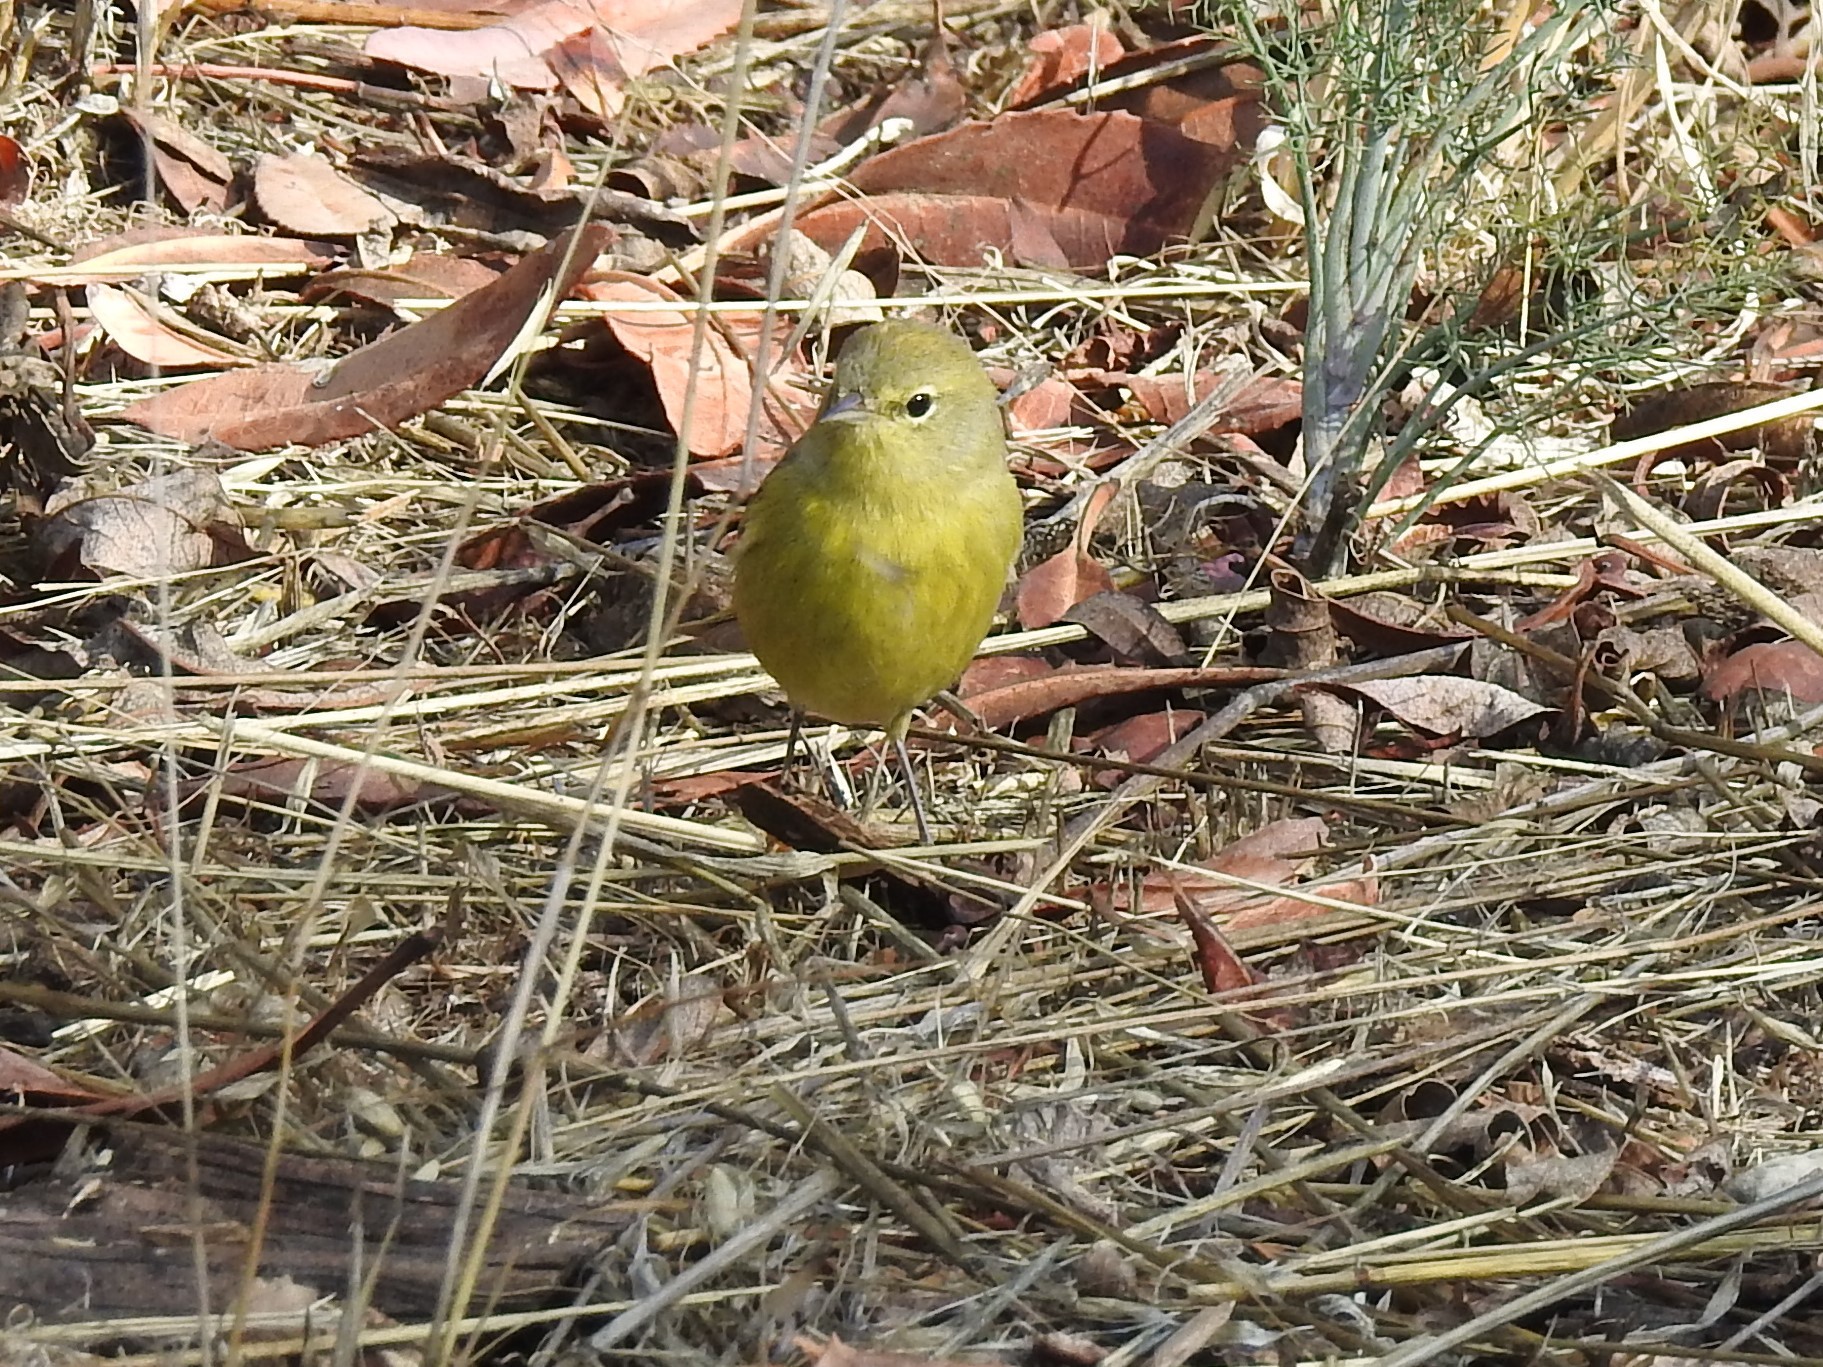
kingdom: Animalia
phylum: Chordata
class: Aves
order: Passeriformes
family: Parulidae
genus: Leiothlypis
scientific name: Leiothlypis celata
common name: Orange-crowned warbler
